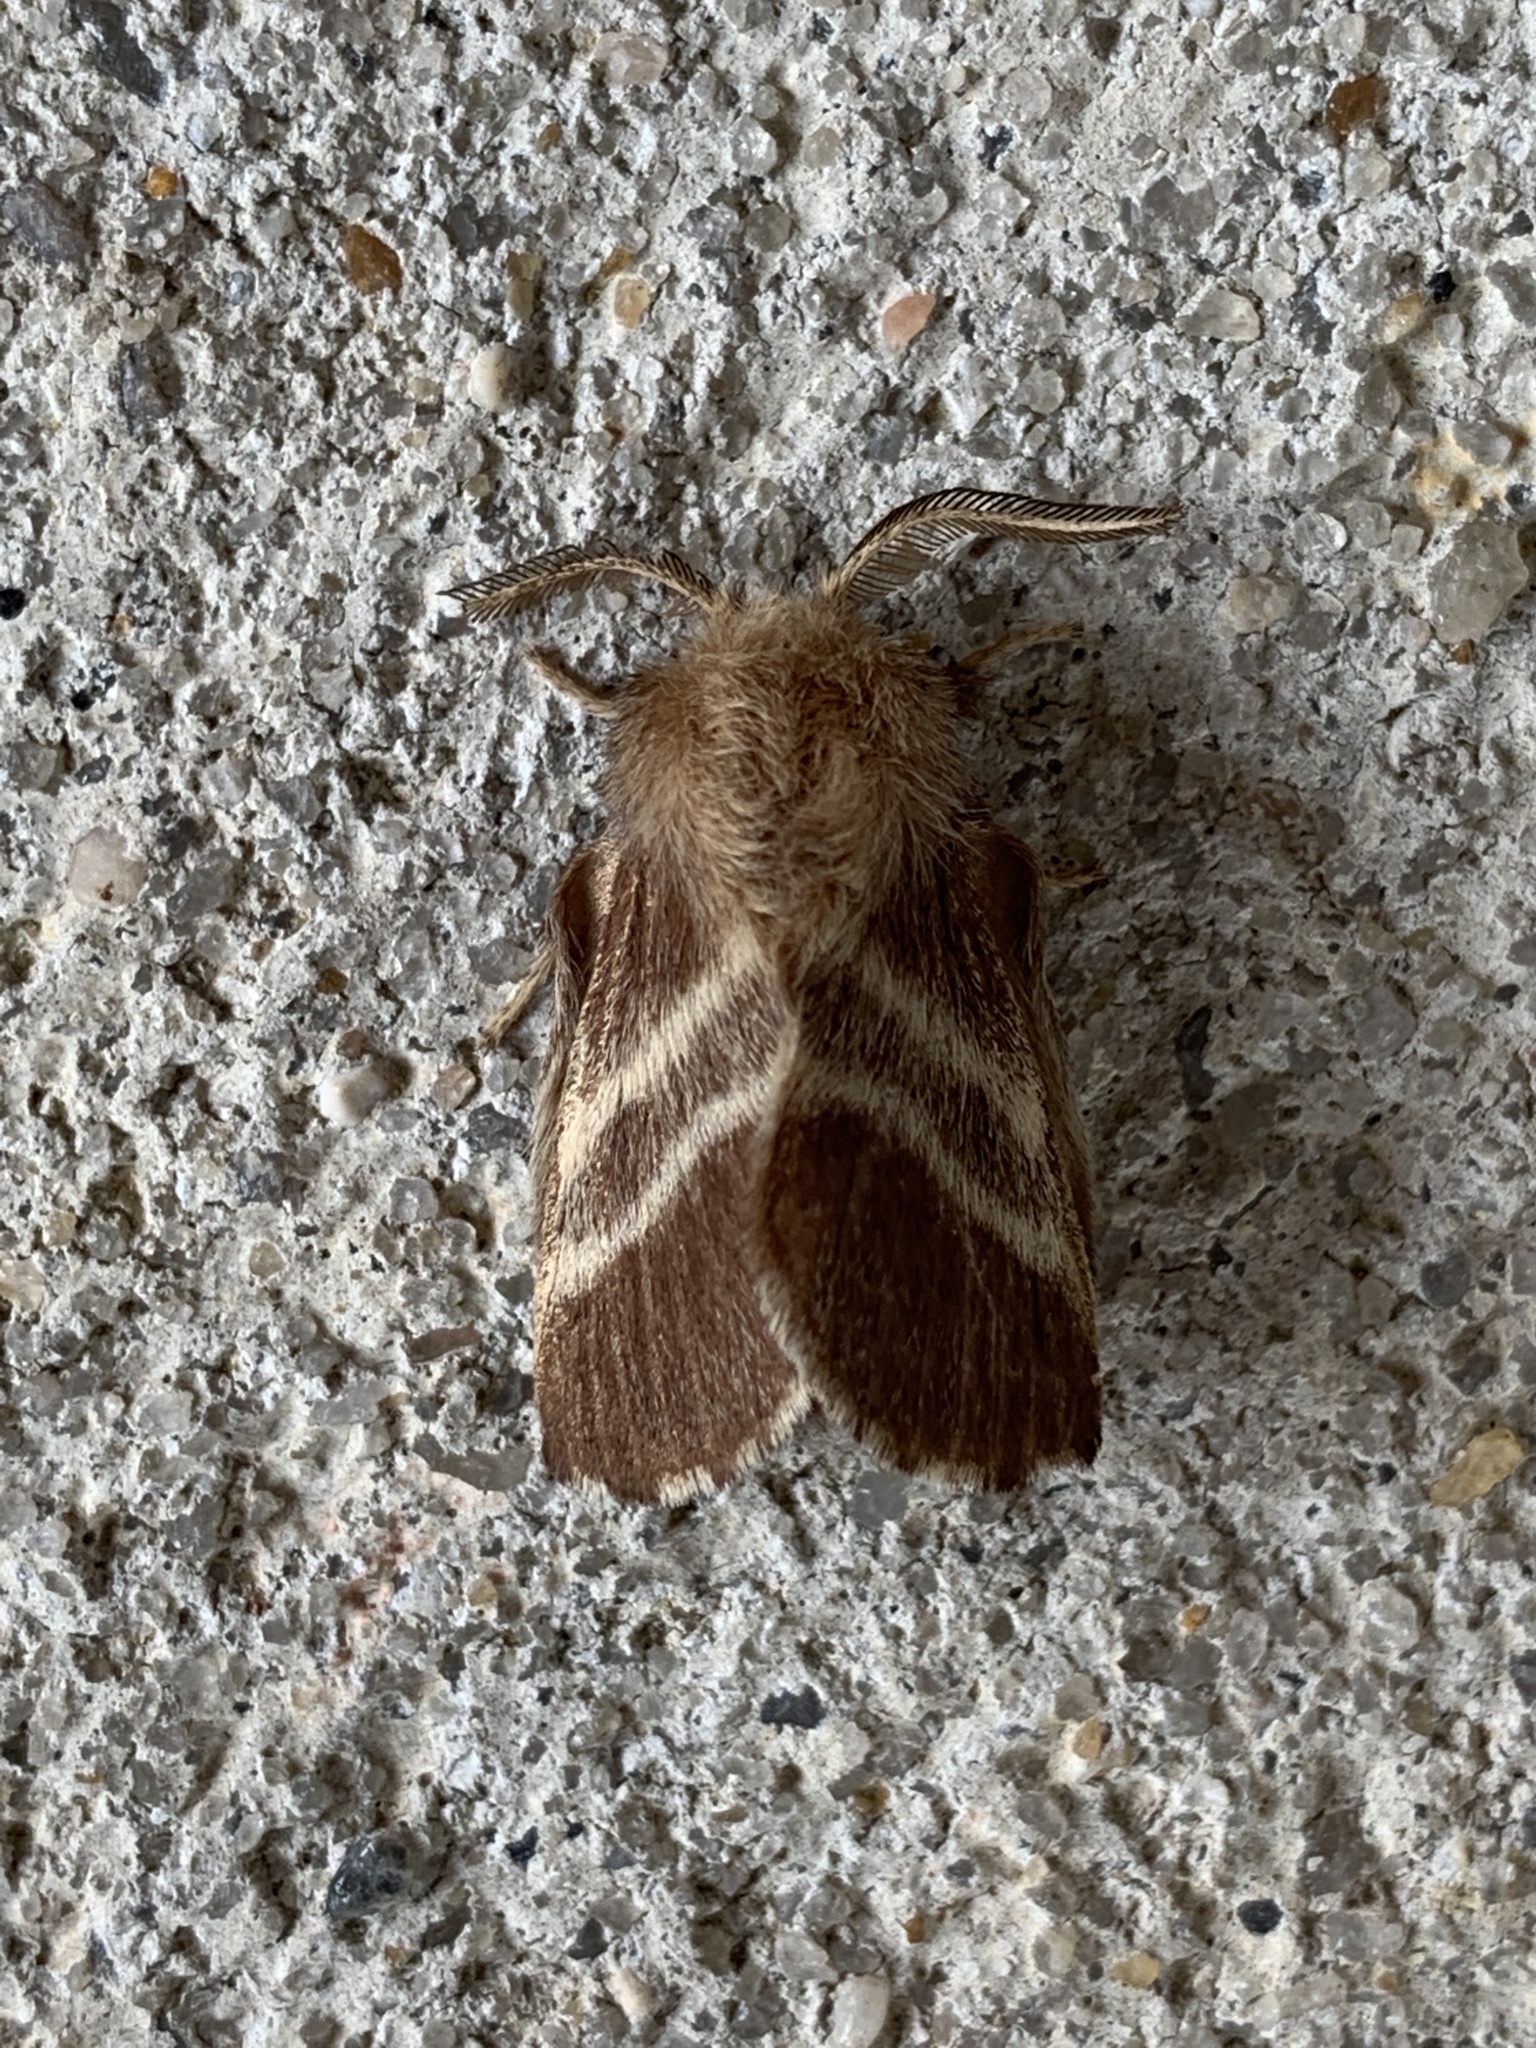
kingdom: Animalia
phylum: Arthropoda
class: Insecta
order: Lepidoptera
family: Lasiocampidae
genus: Malacosoma
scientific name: Malacosoma americana
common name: Eastern tent caterpillar moth
